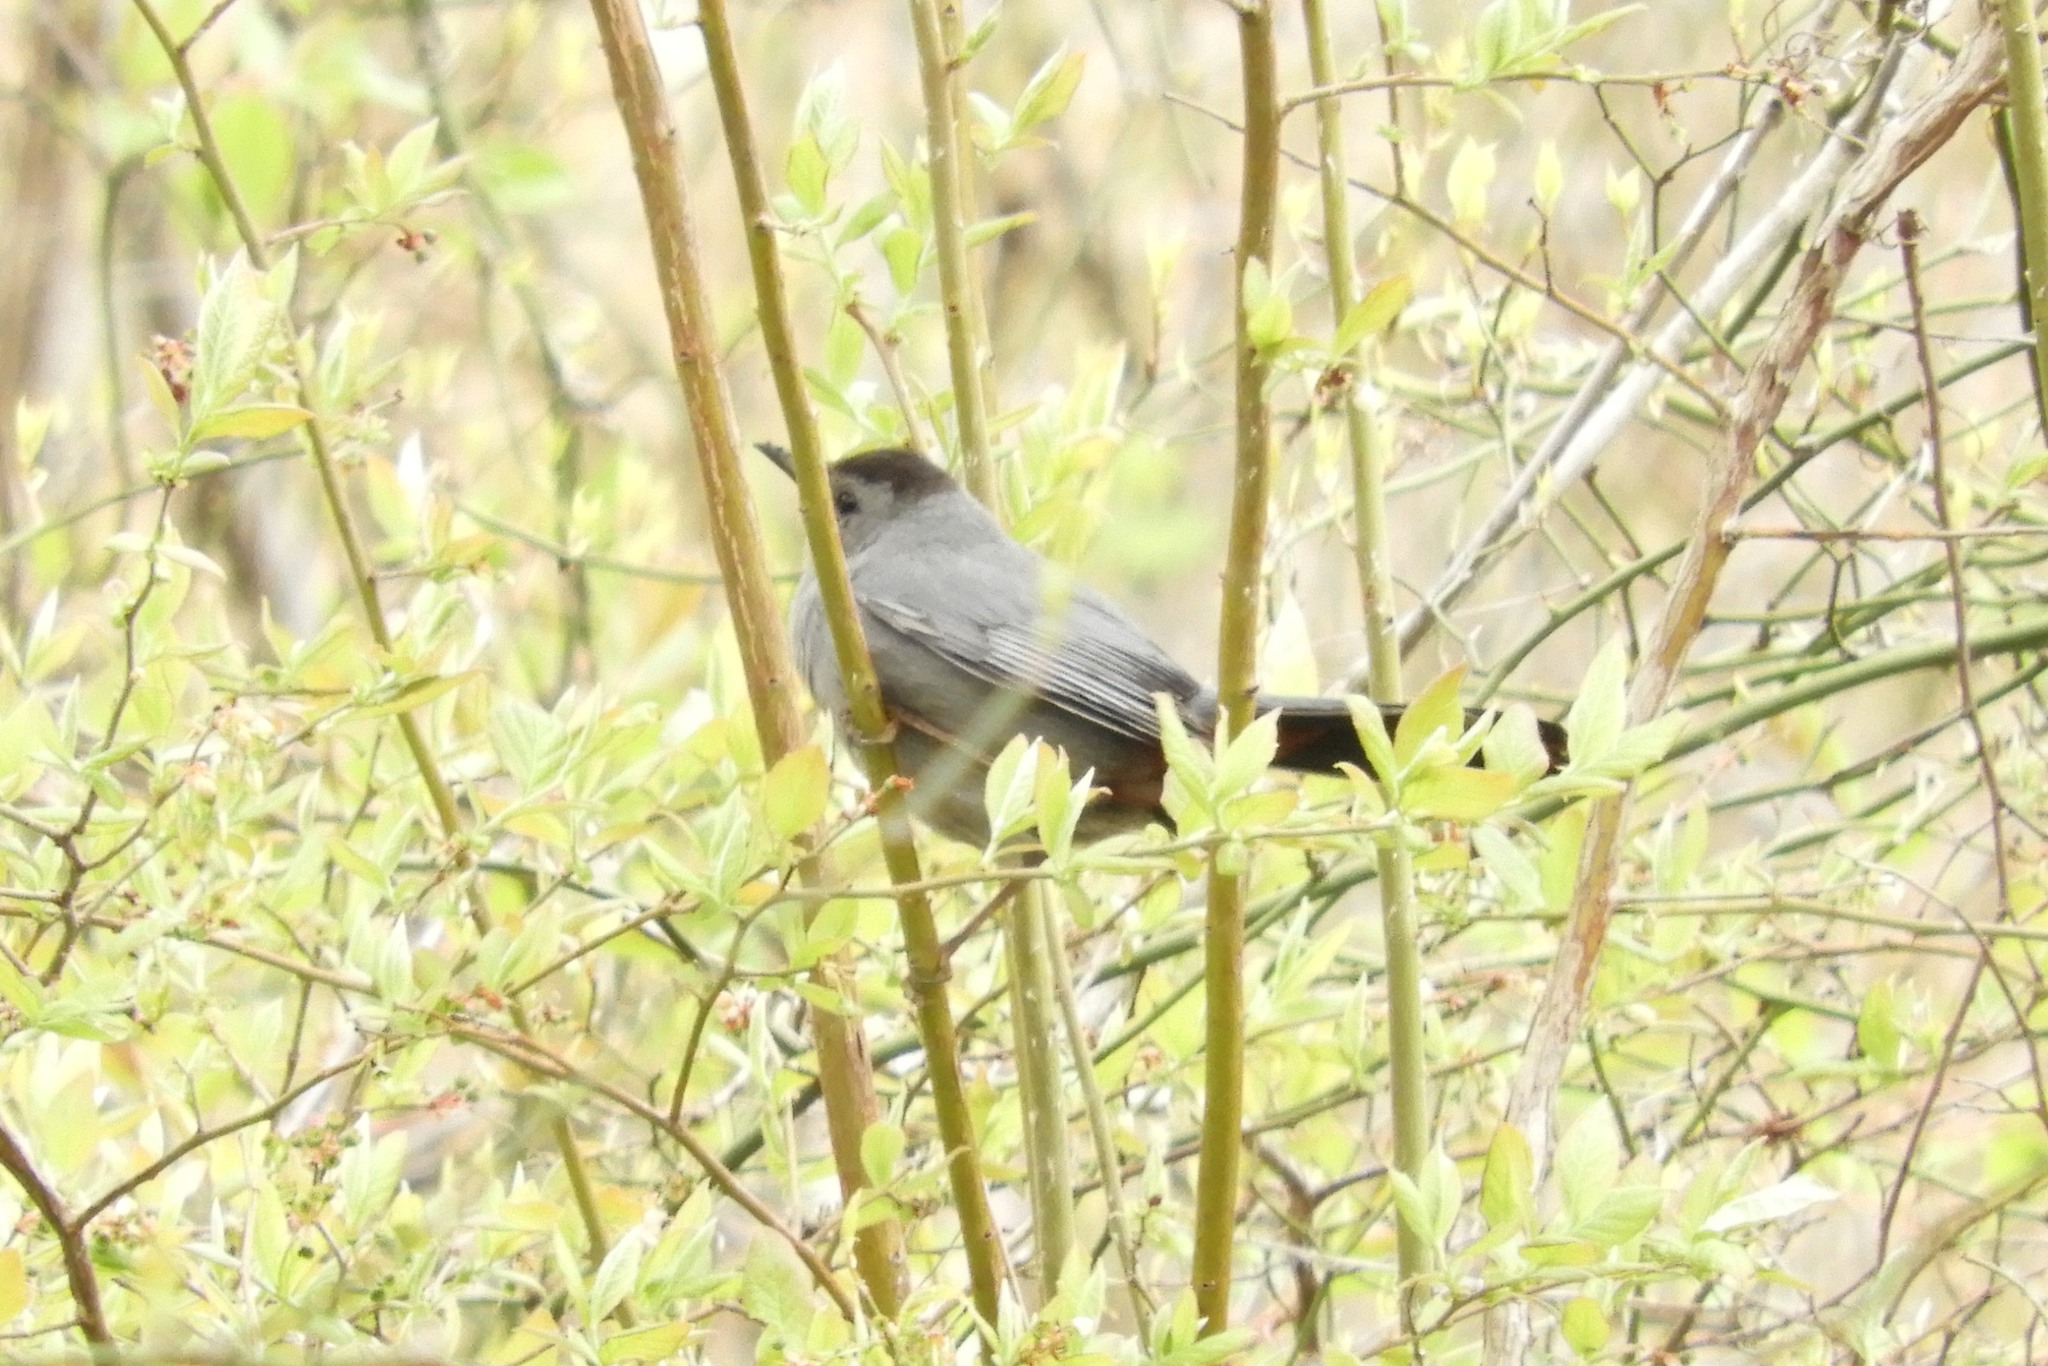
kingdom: Animalia
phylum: Chordata
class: Aves
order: Passeriformes
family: Mimidae
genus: Dumetella
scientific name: Dumetella carolinensis
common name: Gray catbird
